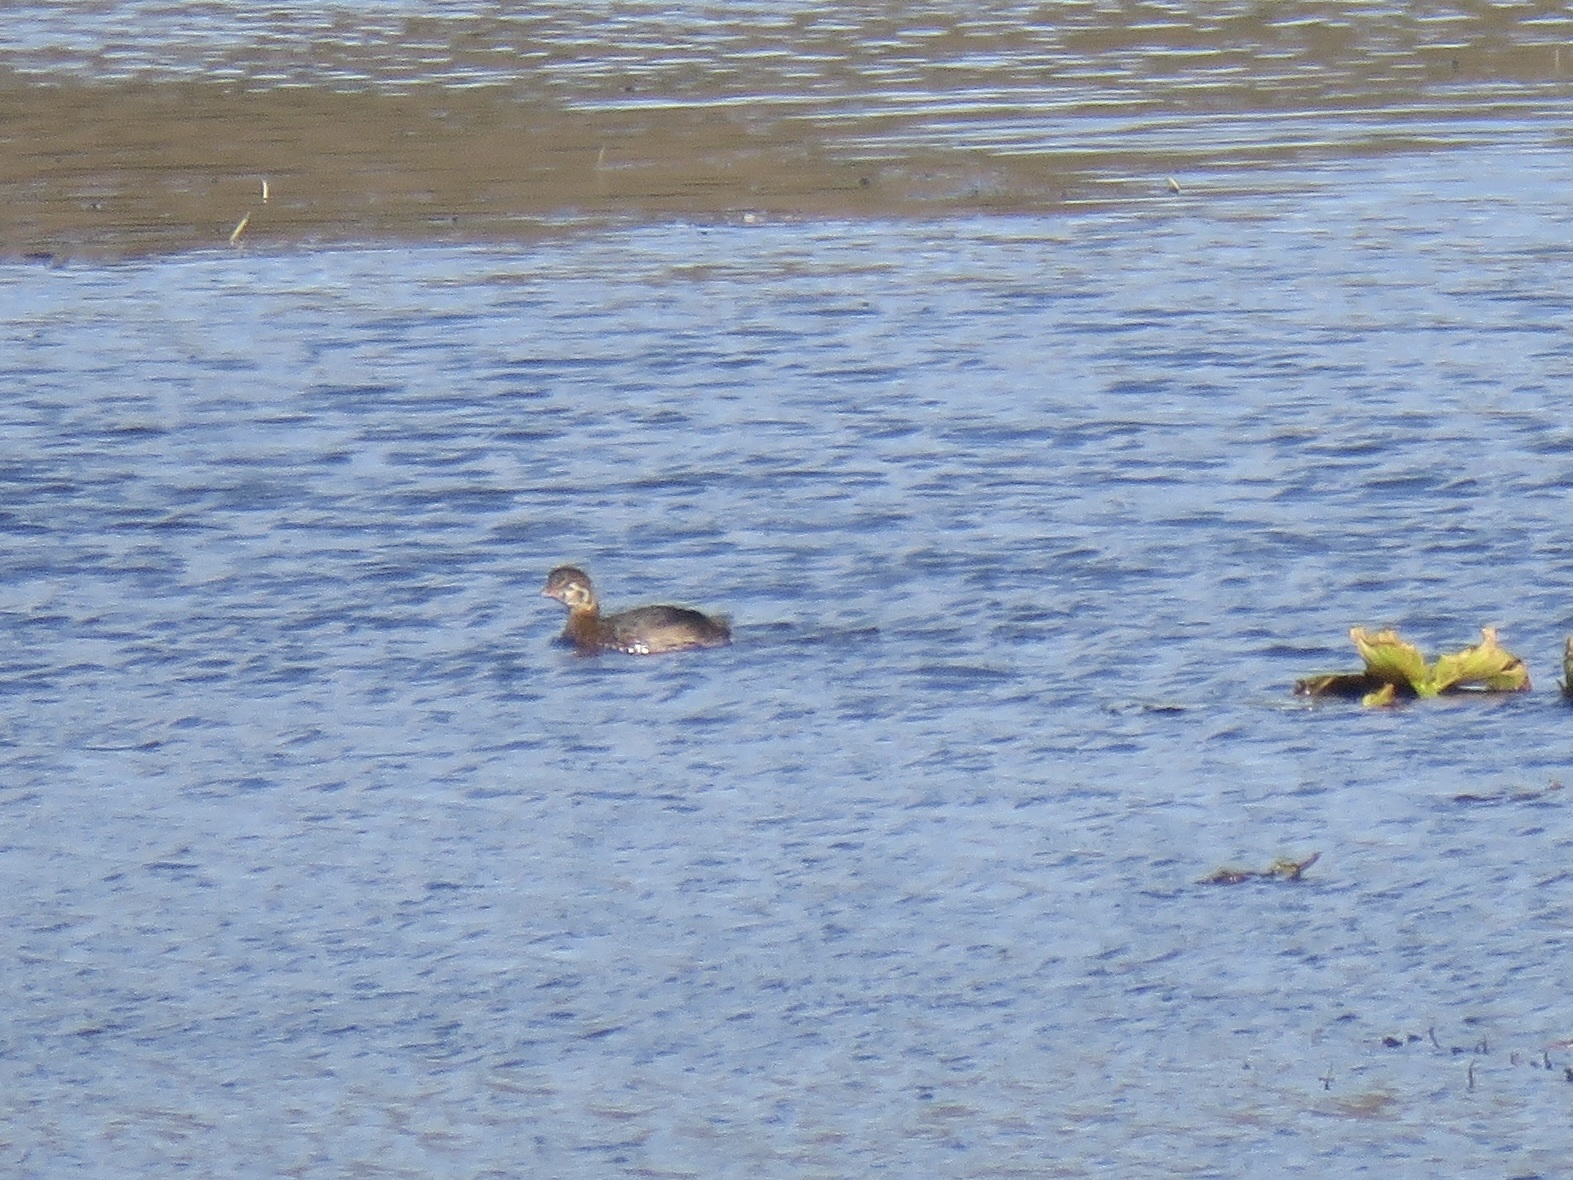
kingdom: Animalia
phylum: Chordata
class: Aves
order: Podicipediformes
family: Podicipedidae
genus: Podilymbus
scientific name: Podilymbus podiceps
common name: Pied-billed grebe
